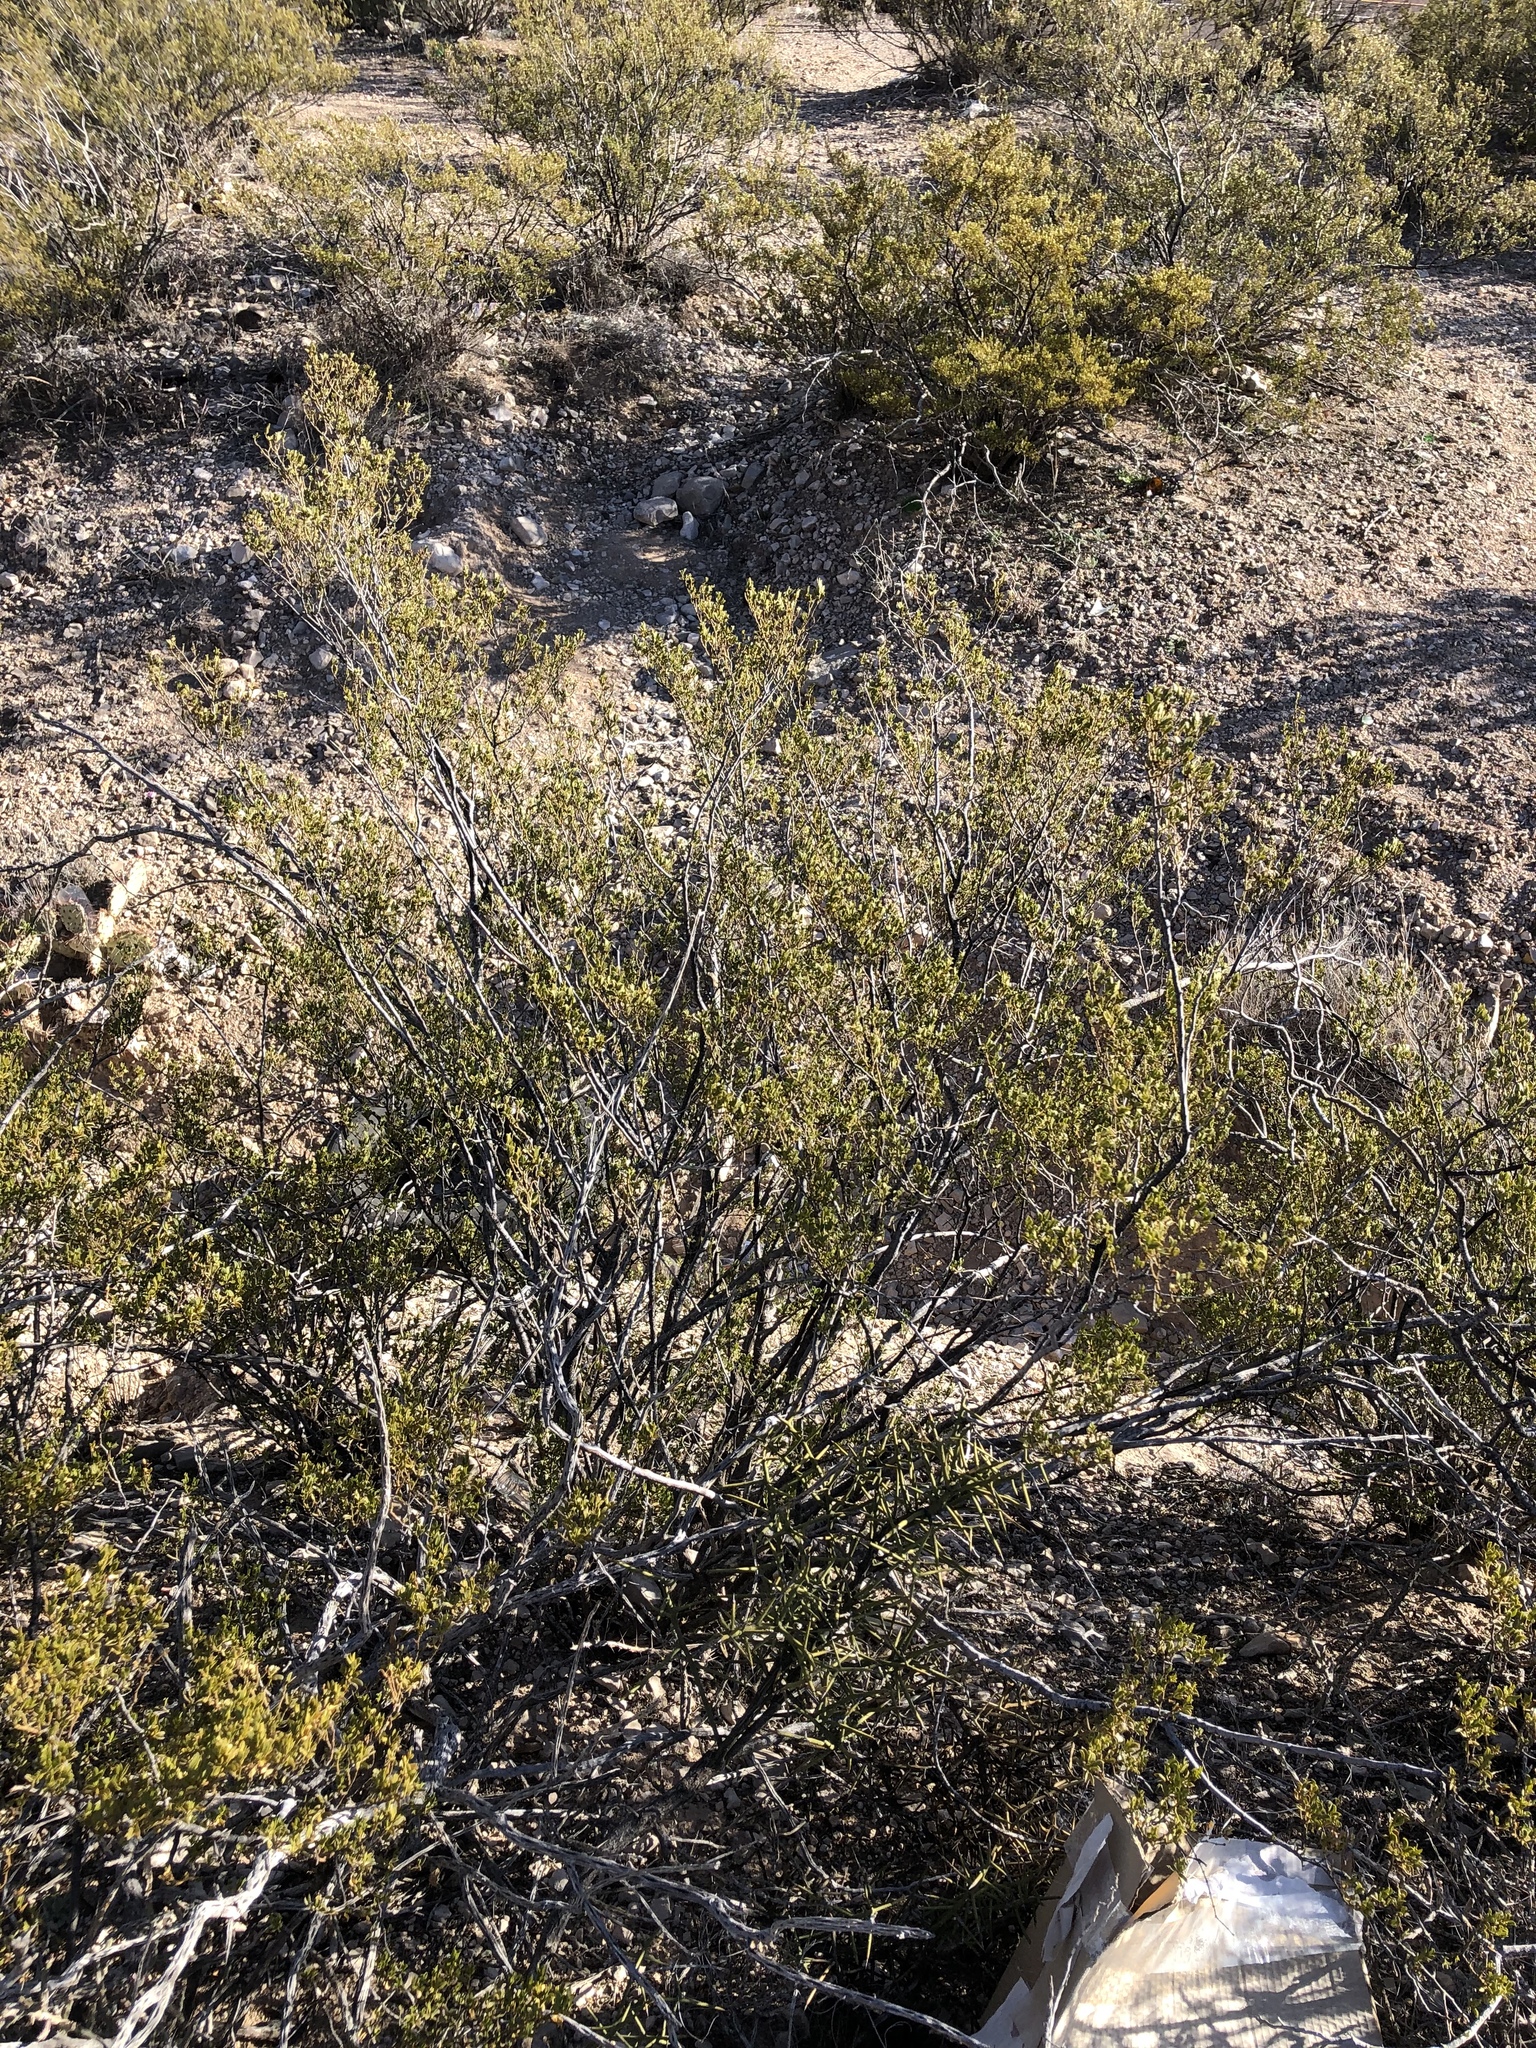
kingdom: Plantae
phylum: Tracheophyta
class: Magnoliopsida
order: Zygophyllales
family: Zygophyllaceae
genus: Larrea
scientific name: Larrea tridentata
